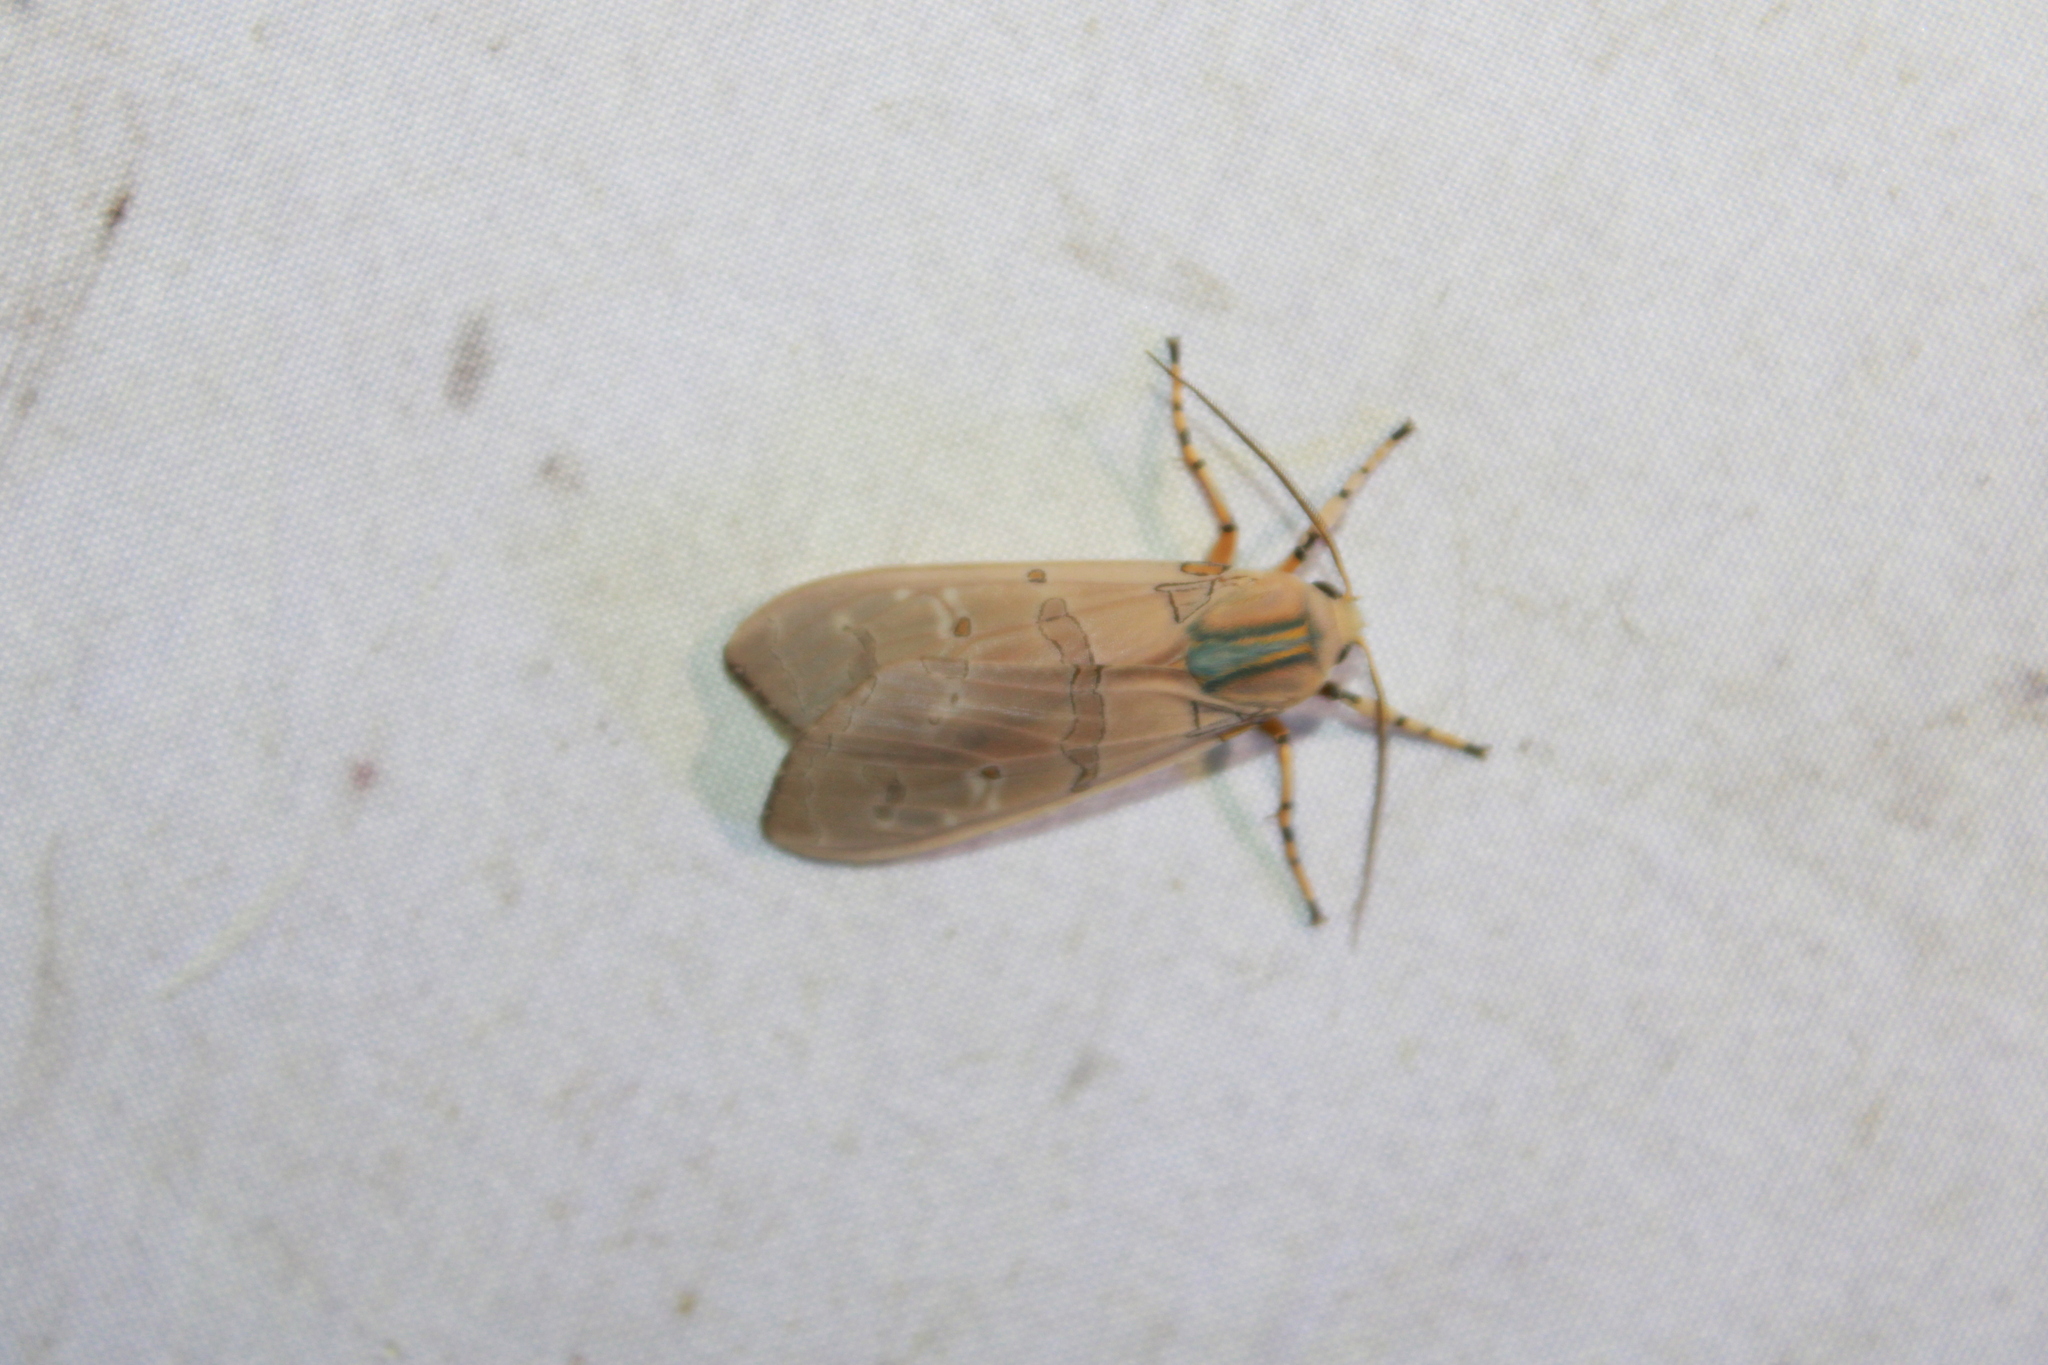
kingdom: Animalia
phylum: Arthropoda
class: Insecta
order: Lepidoptera
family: Erebidae
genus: Halysidota
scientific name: Halysidota cinctipes
